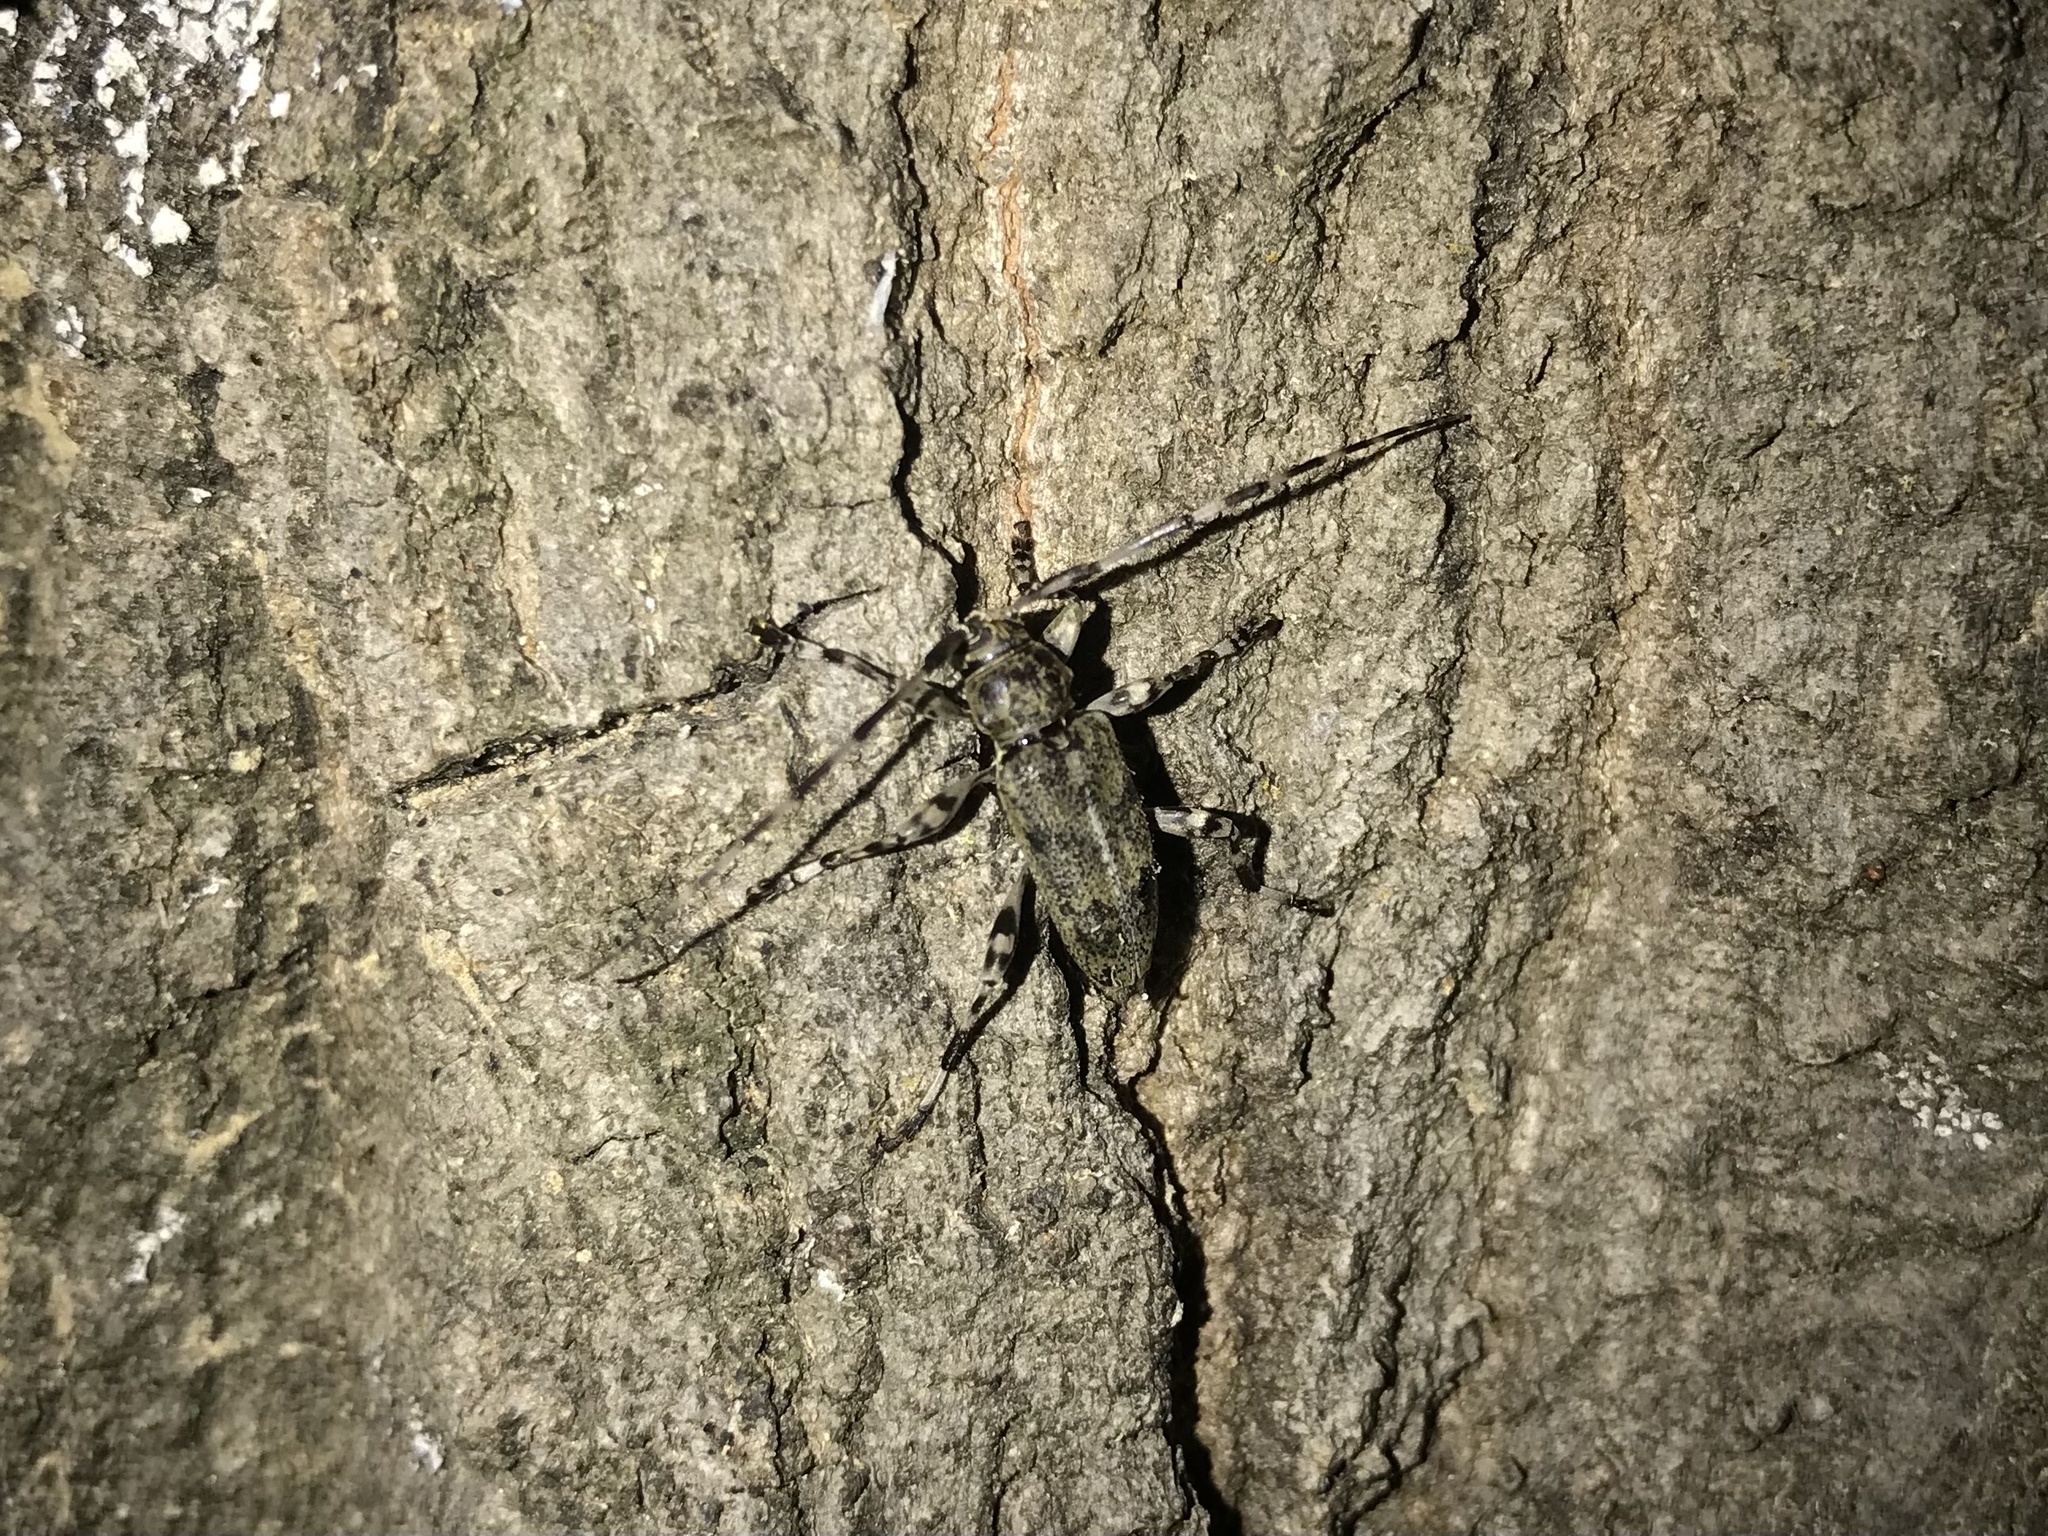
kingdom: Animalia
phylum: Arthropoda
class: Insecta
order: Coleoptera
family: Cerambycidae
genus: Graphisurus
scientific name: Graphisurus fasciatus
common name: Banded graphisurus
